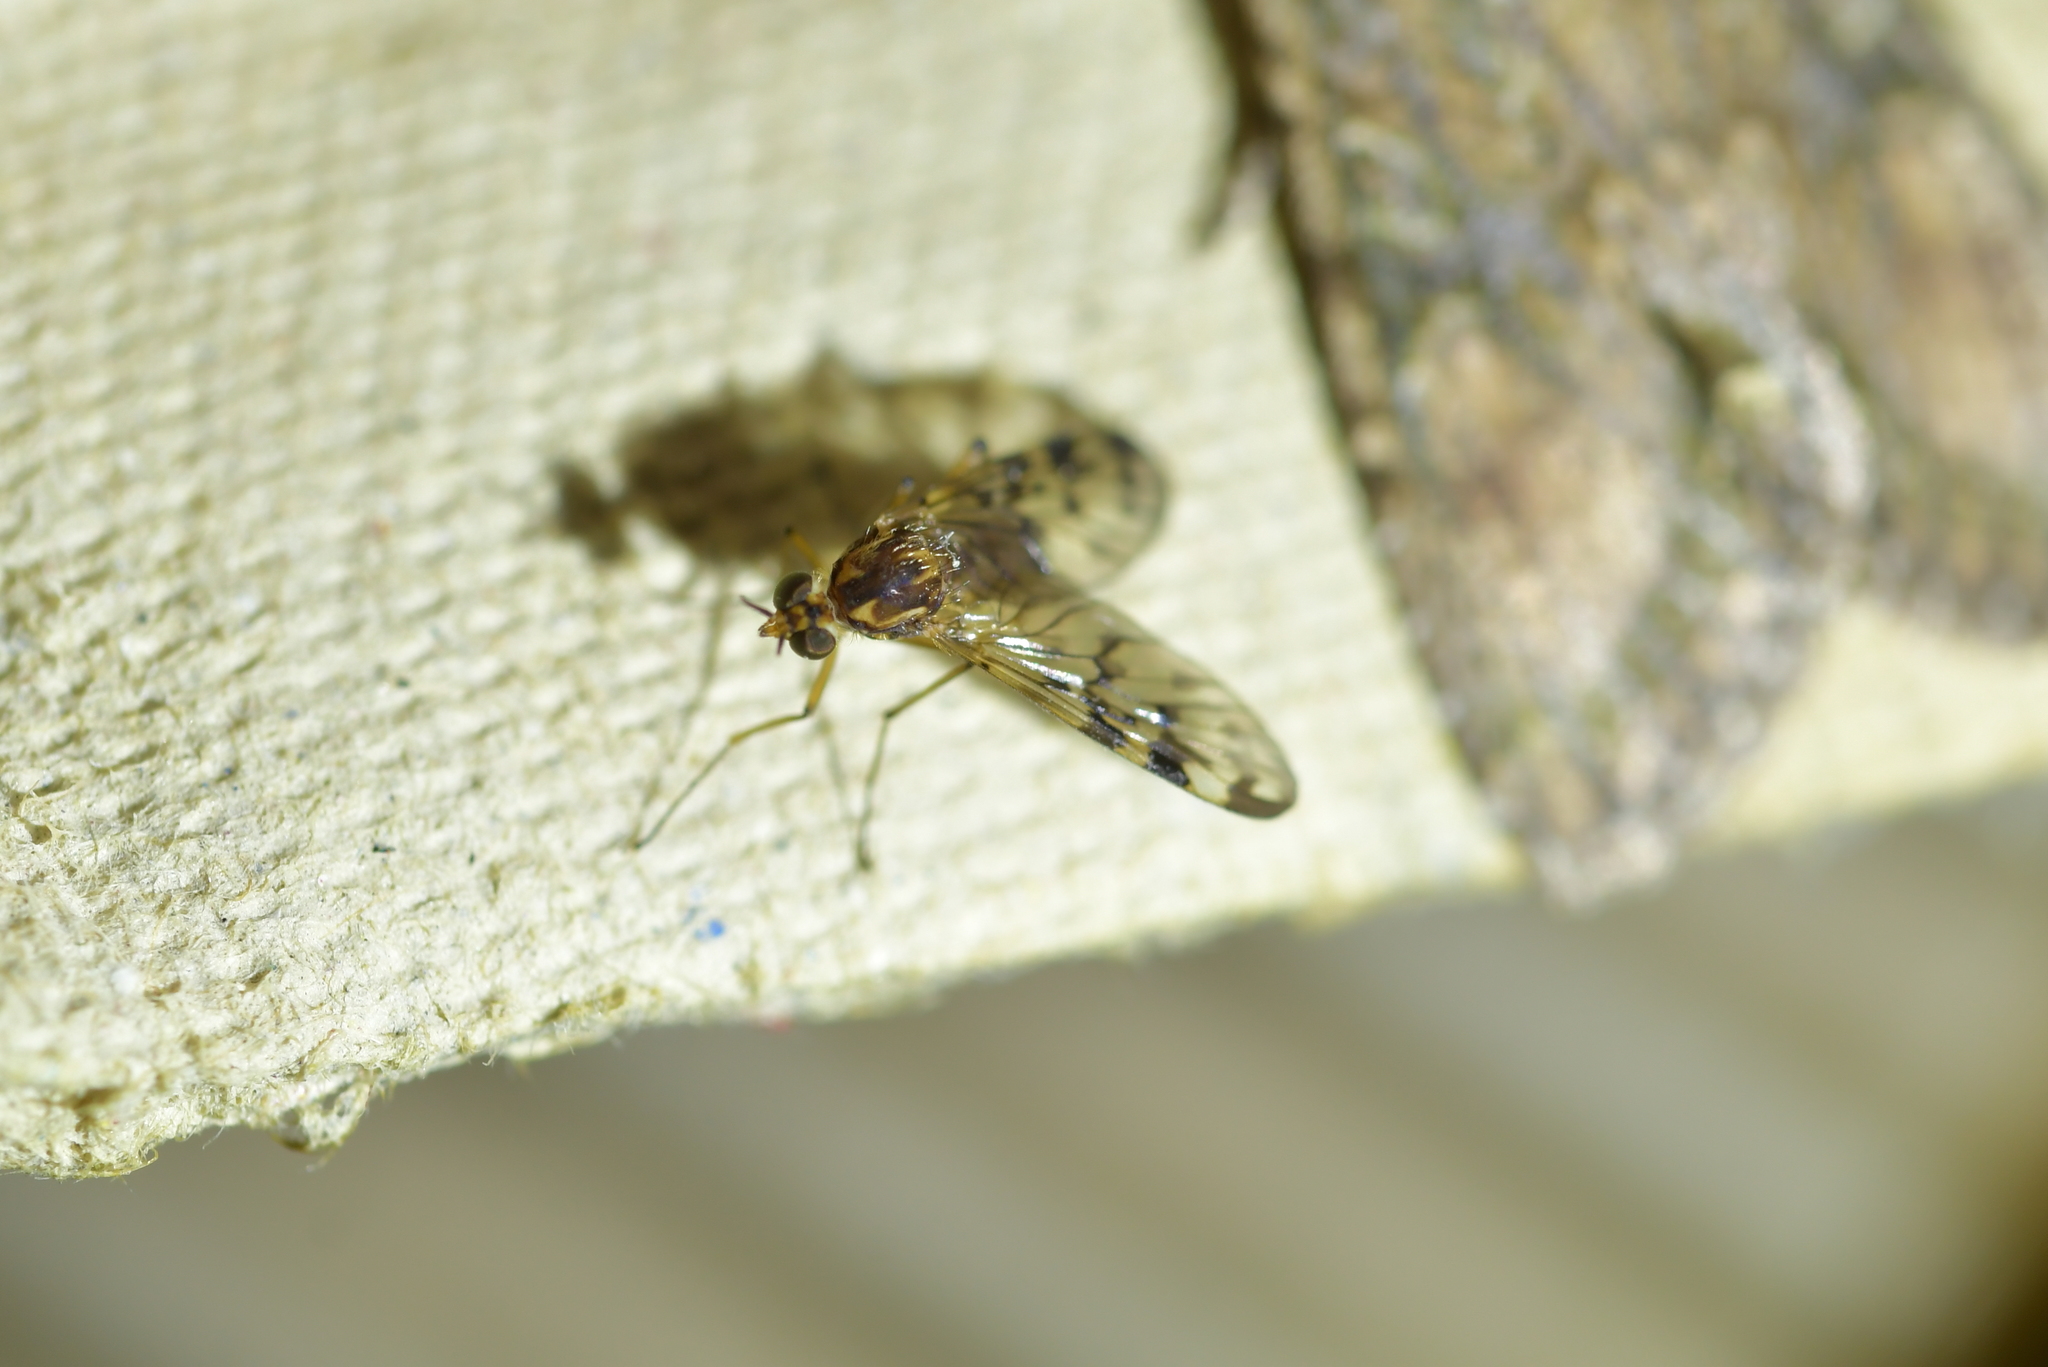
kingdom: Animalia
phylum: Arthropoda
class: Insecta
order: Diptera
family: Anisopodidae
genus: Sylvicola
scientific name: Sylvicola dubius
